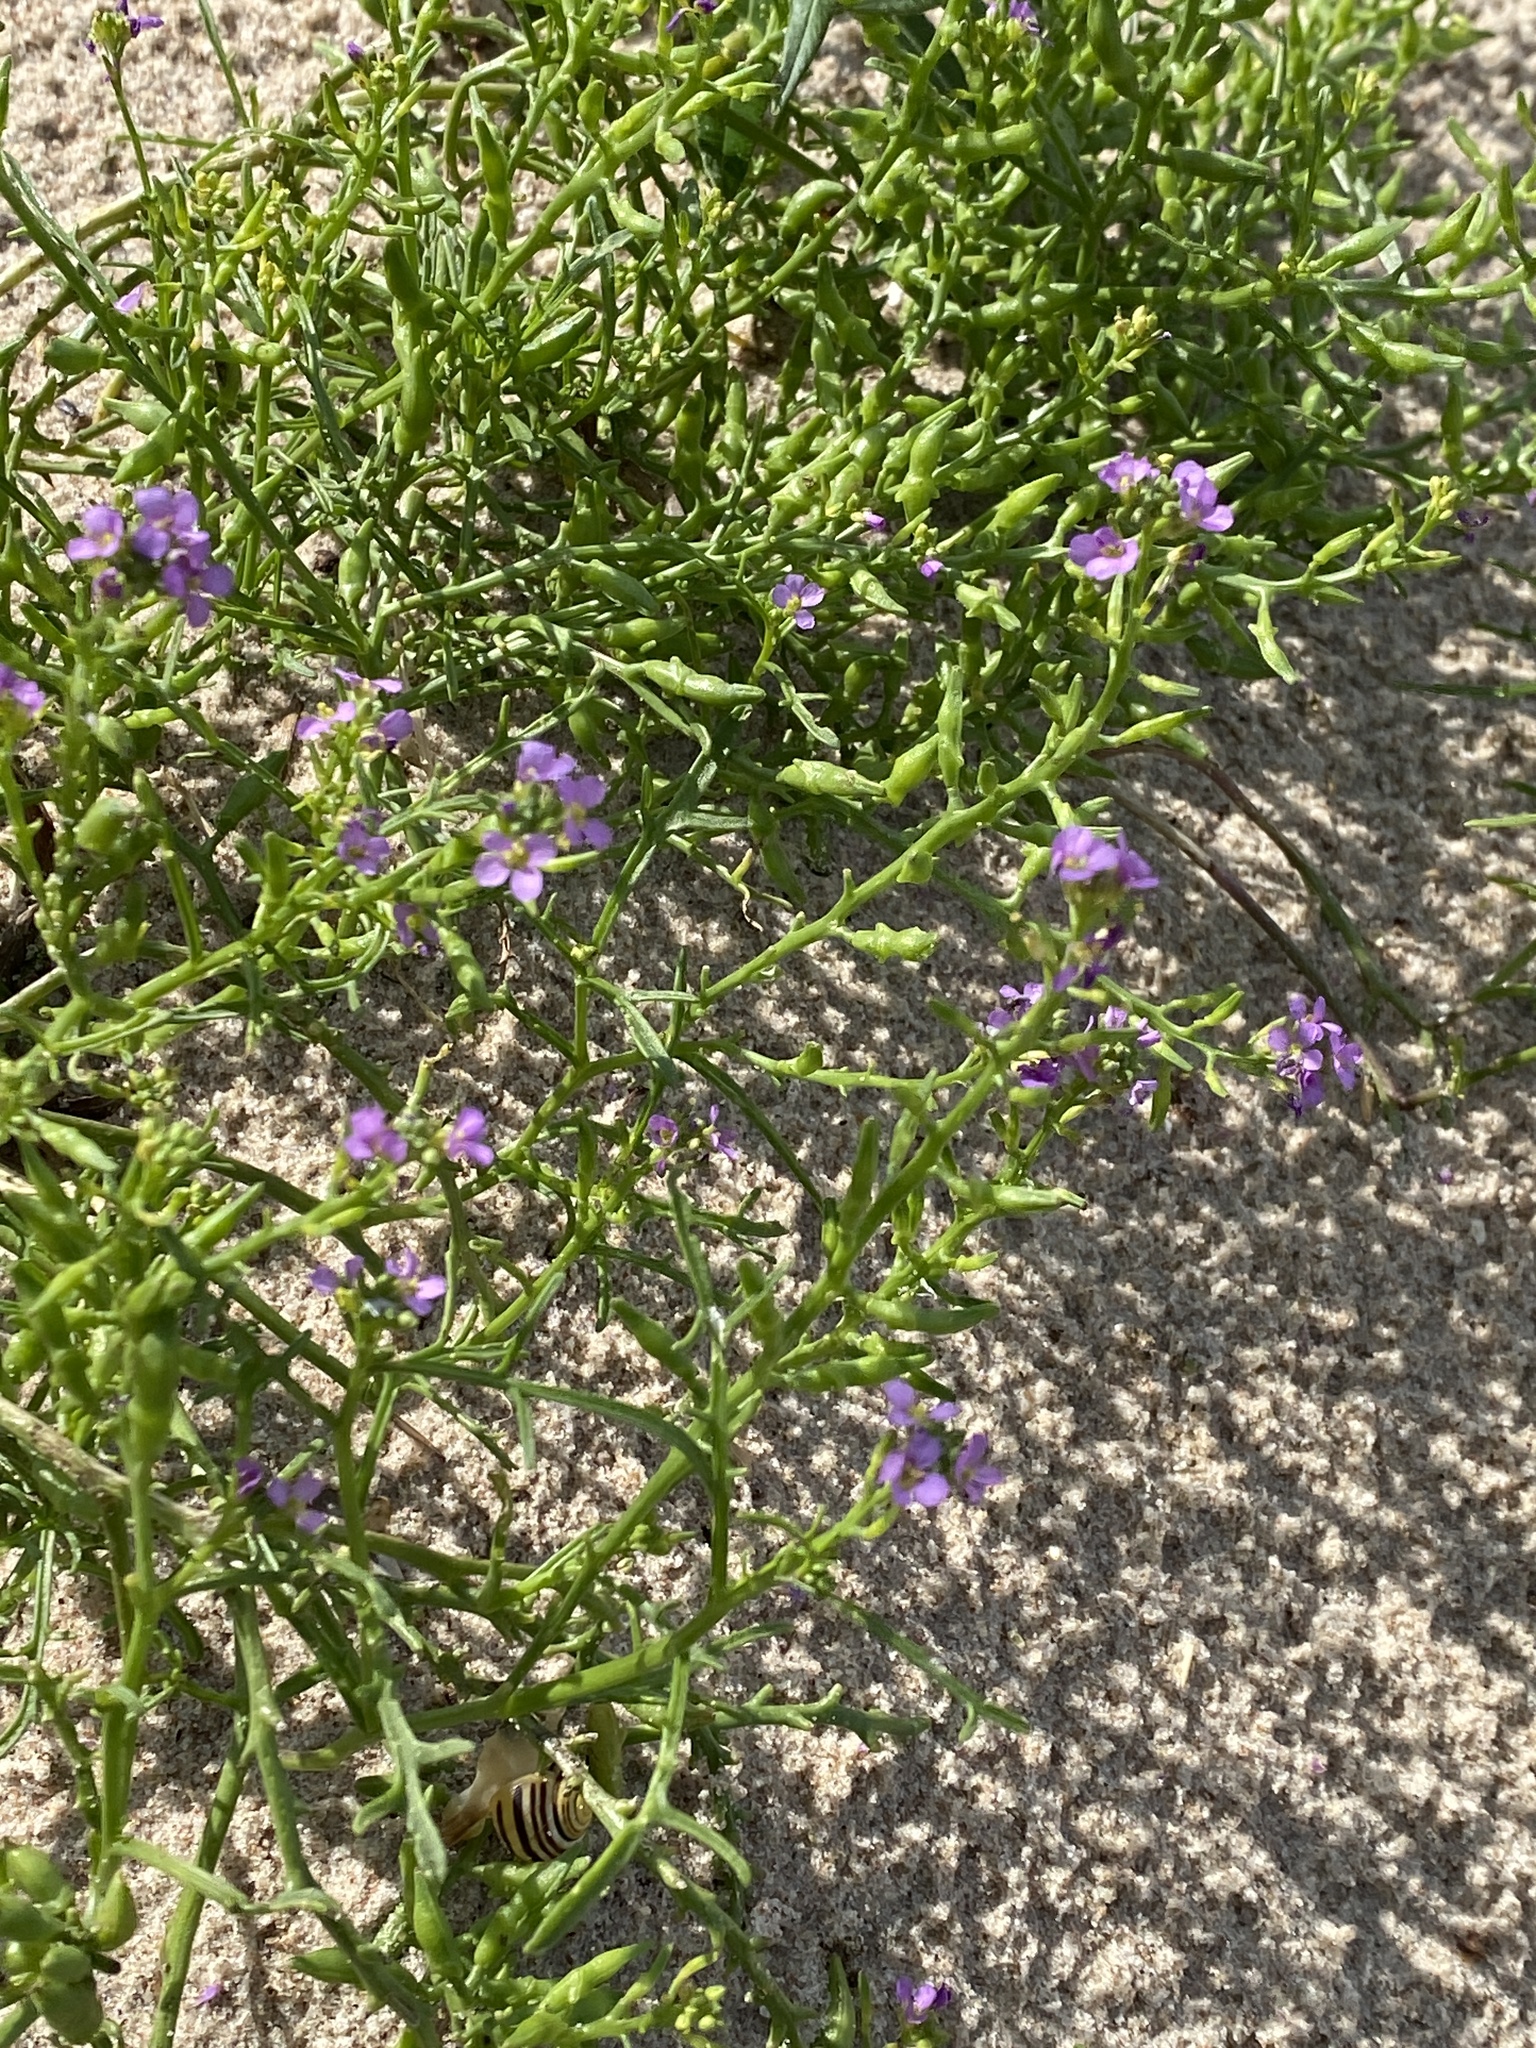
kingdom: Plantae
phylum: Tracheophyta
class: Magnoliopsida
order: Brassicales
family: Brassicaceae
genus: Cakile
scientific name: Cakile maritima
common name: Sea rocket
